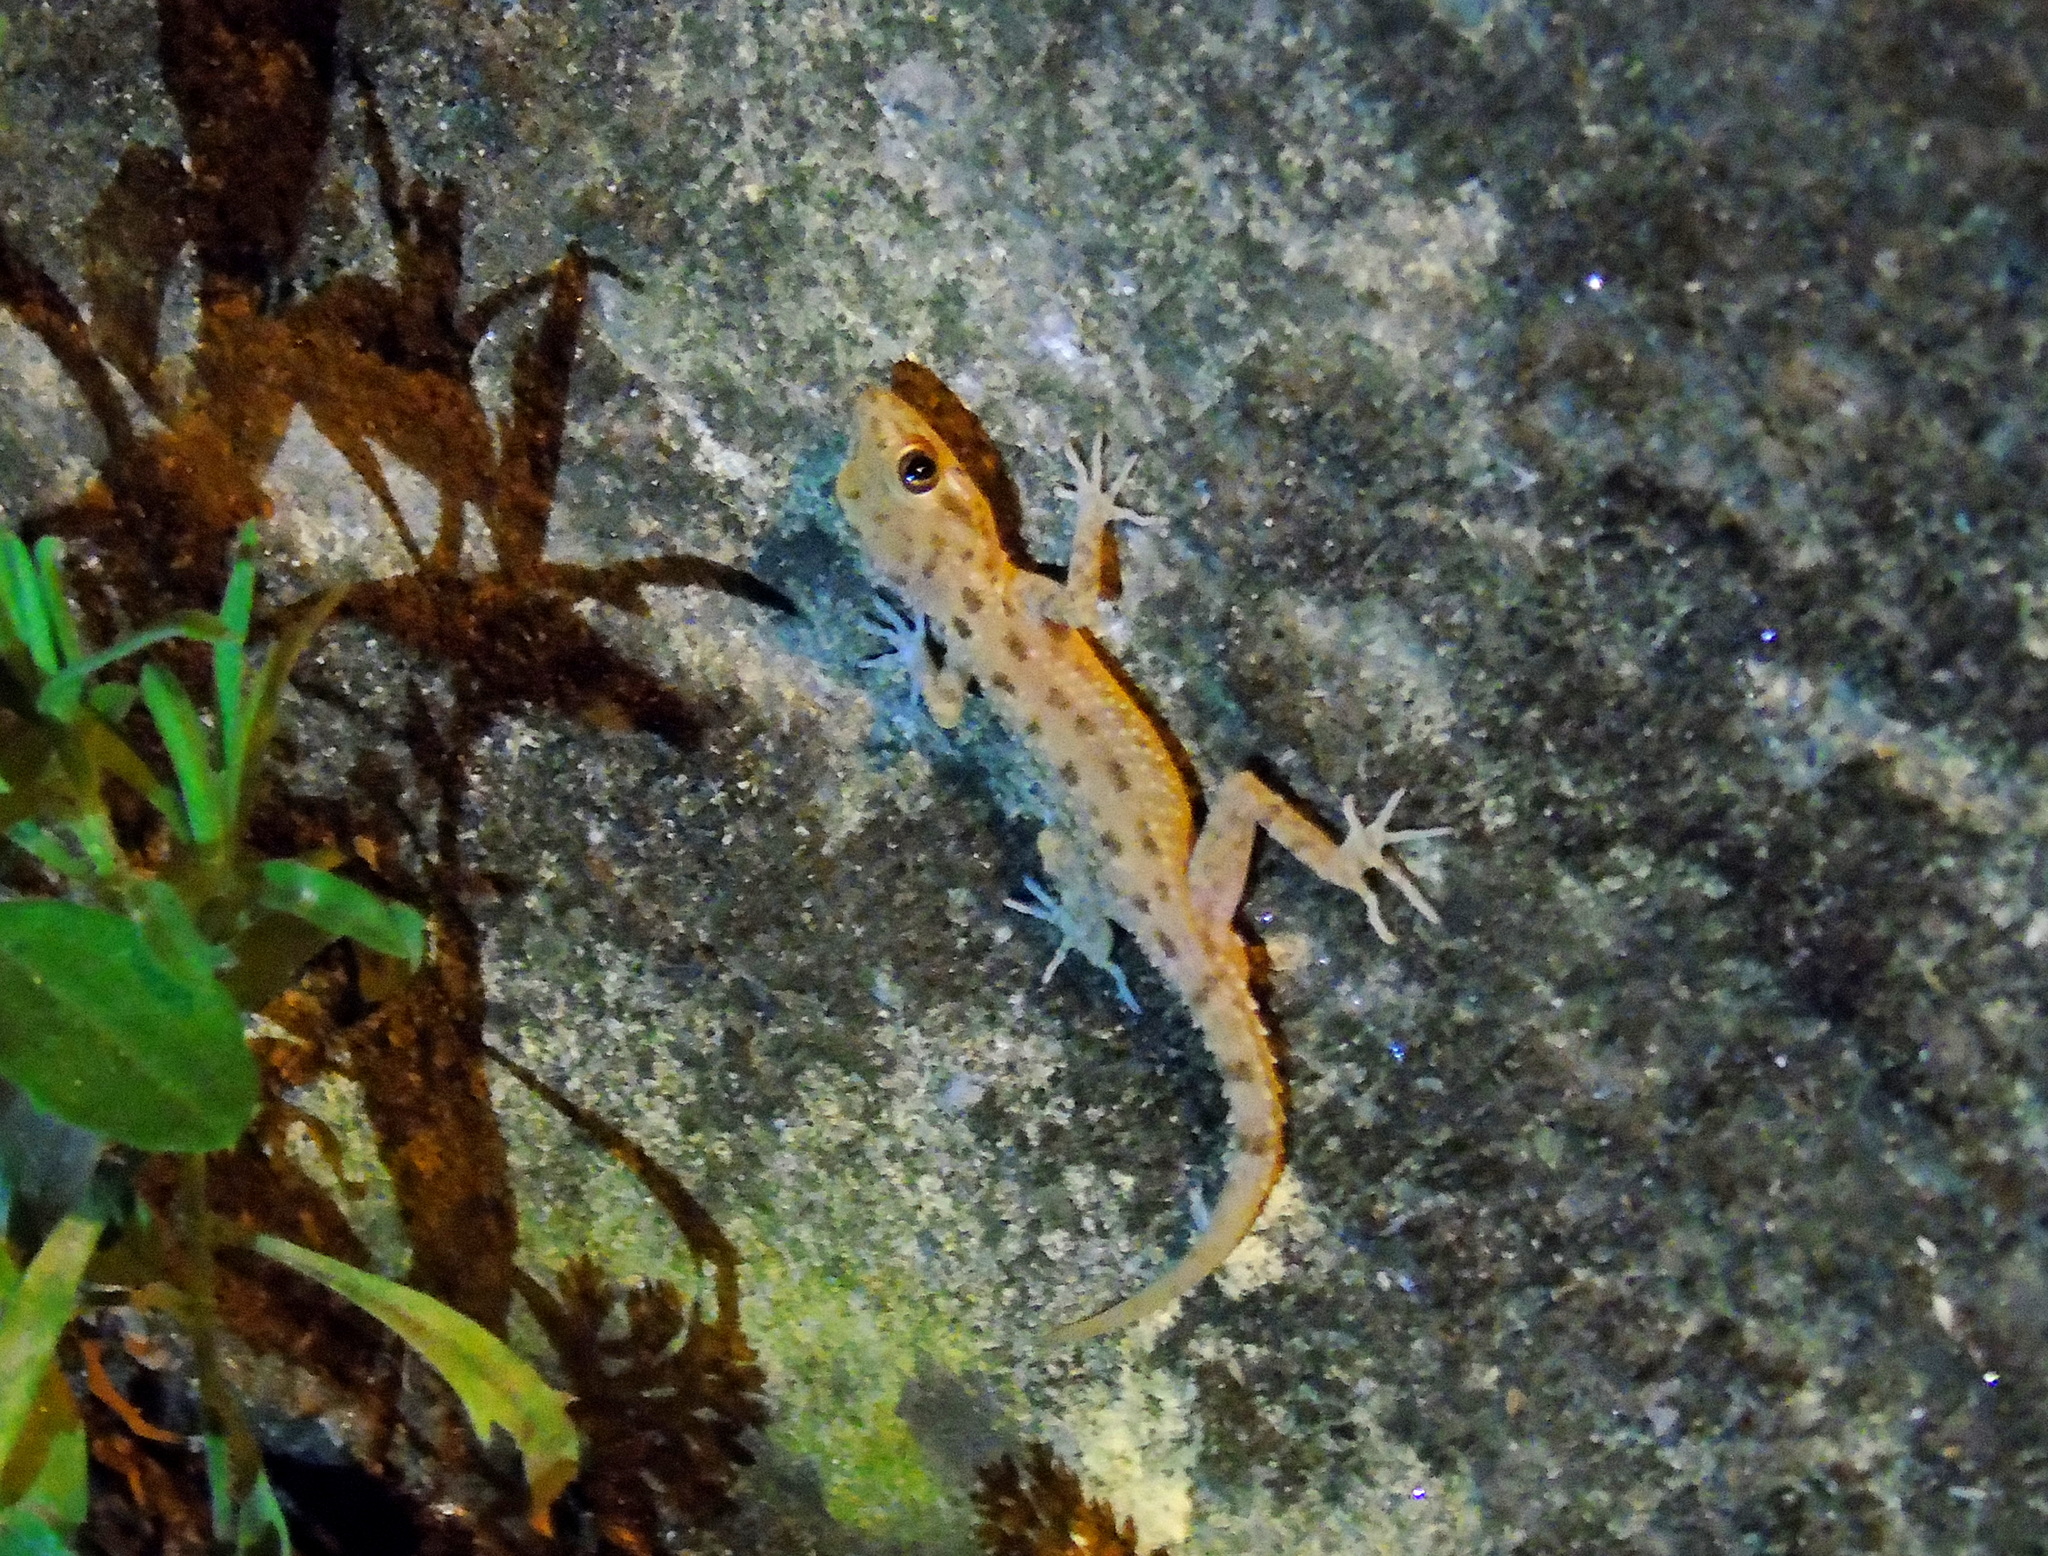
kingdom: Animalia
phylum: Chordata
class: Squamata
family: Gekkonidae
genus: Cyrtopodion
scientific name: Cyrtopodion scabrum
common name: Rough-tailed gecko
